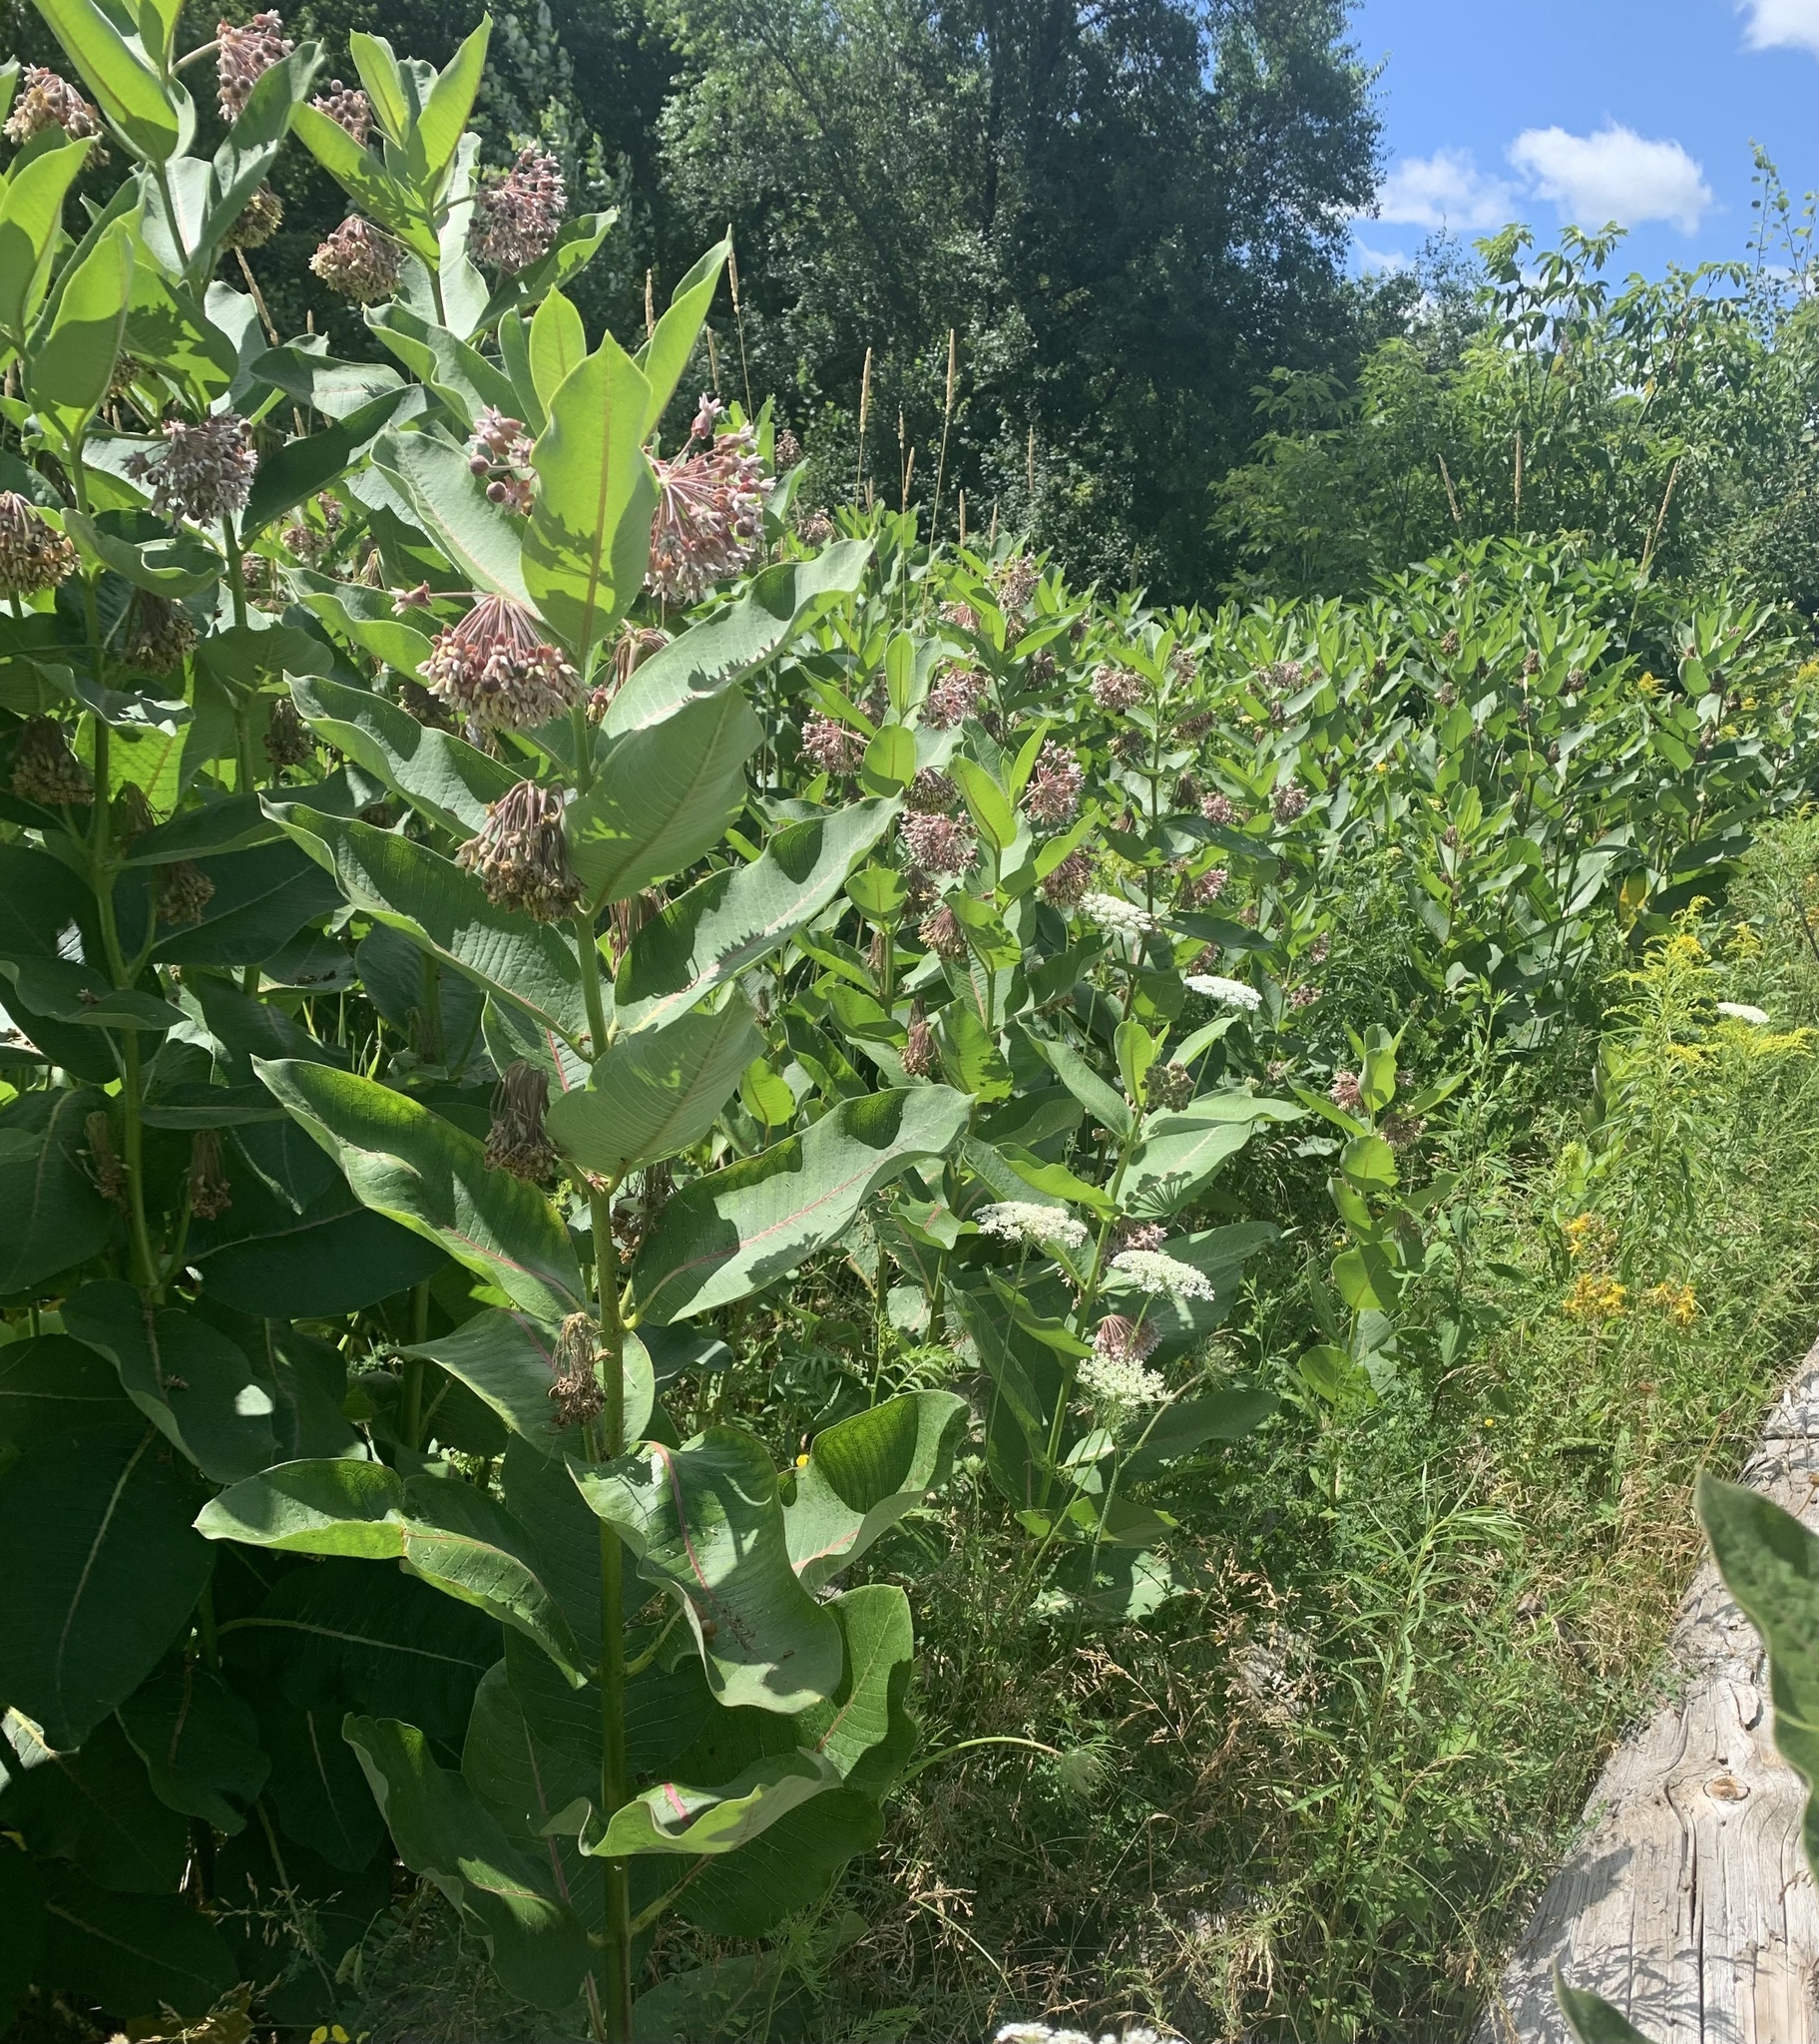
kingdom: Plantae
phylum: Tracheophyta
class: Magnoliopsida
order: Gentianales
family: Apocynaceae
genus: Asclepias
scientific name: Asclepias syriaca
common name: Common milkweed
